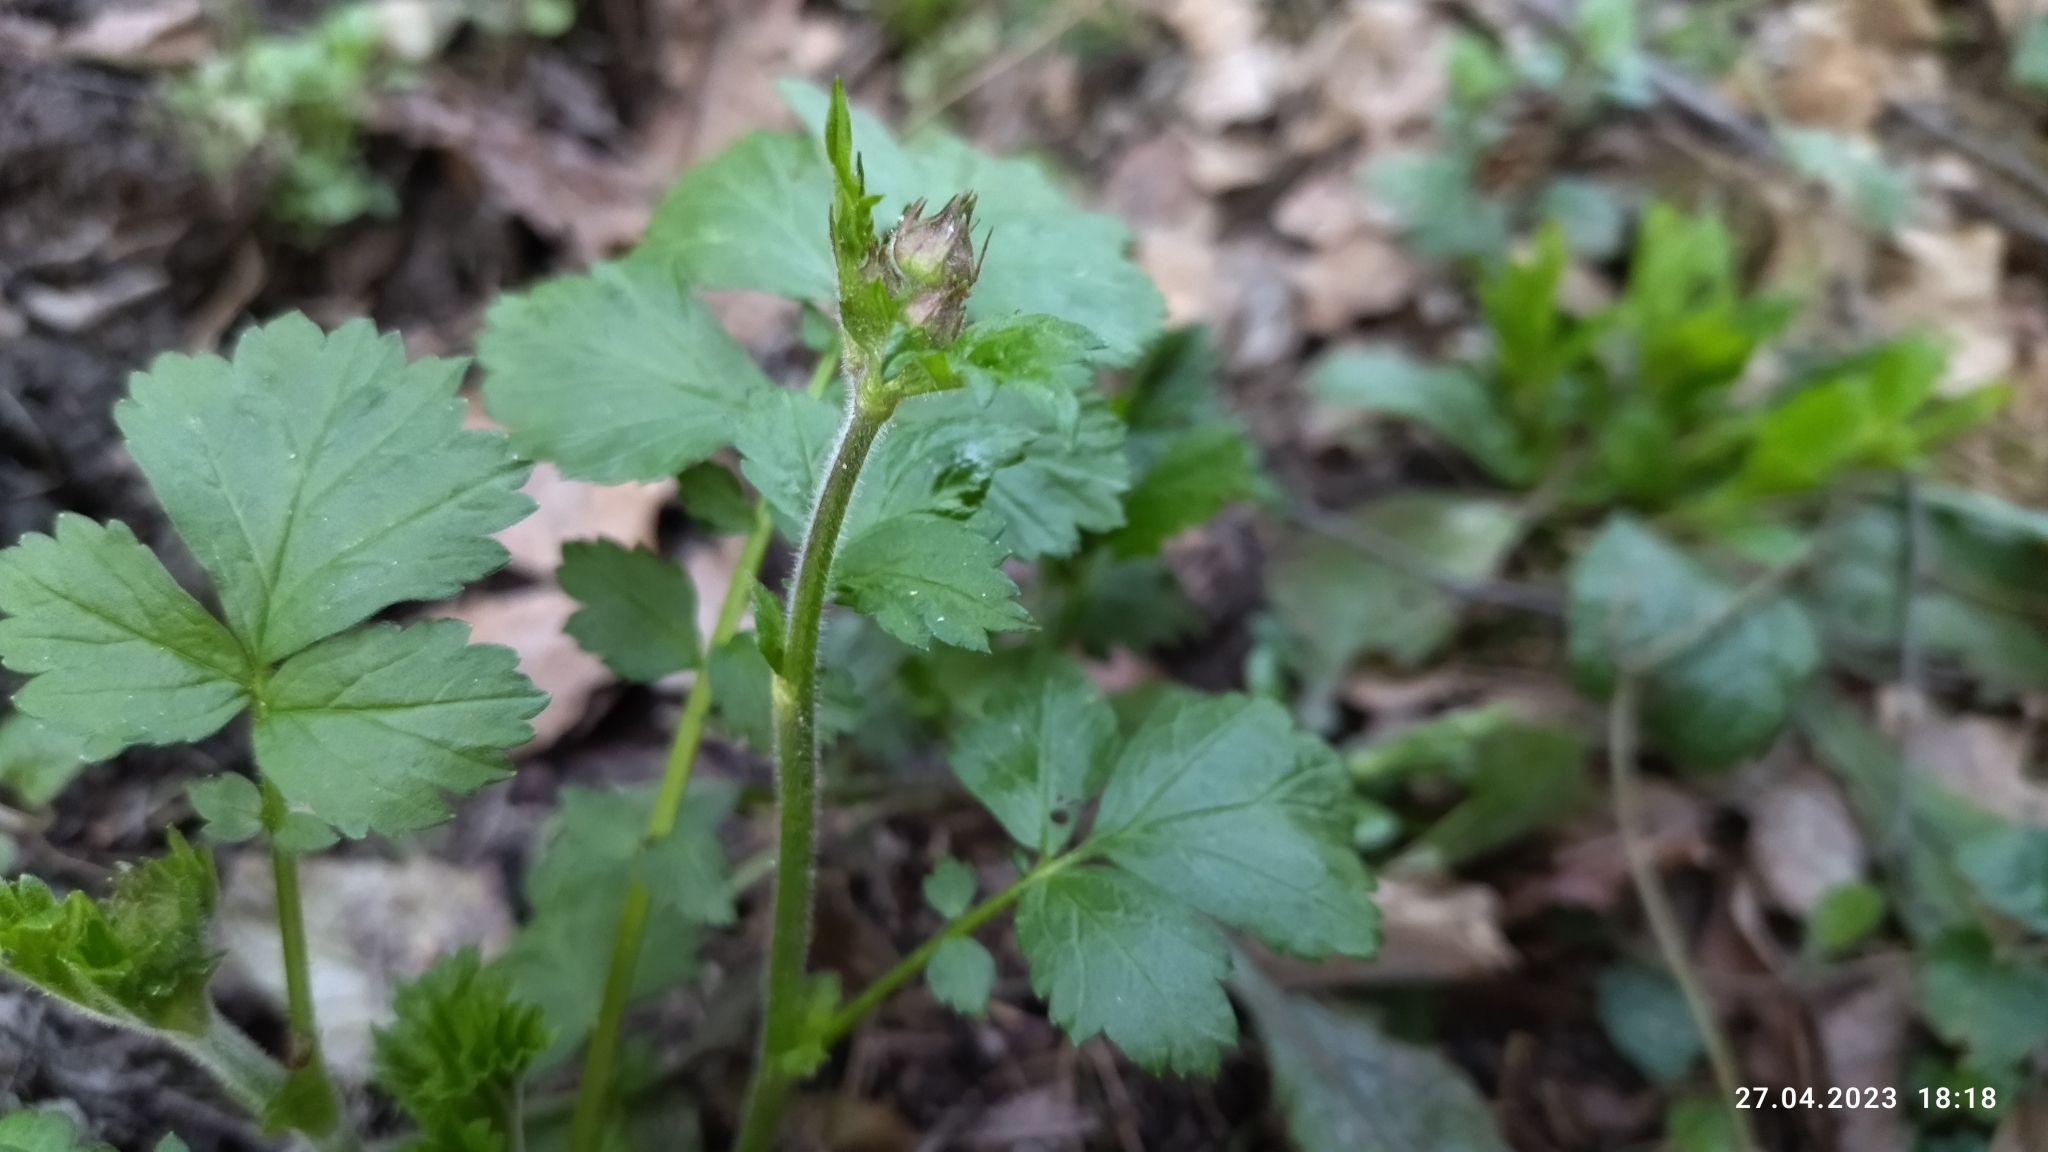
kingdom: Plantae
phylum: Tracheophyta
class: Magnoliopsida
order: Rosales
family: Rosaceae
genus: Geum
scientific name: Geum rivale
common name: Water avens
